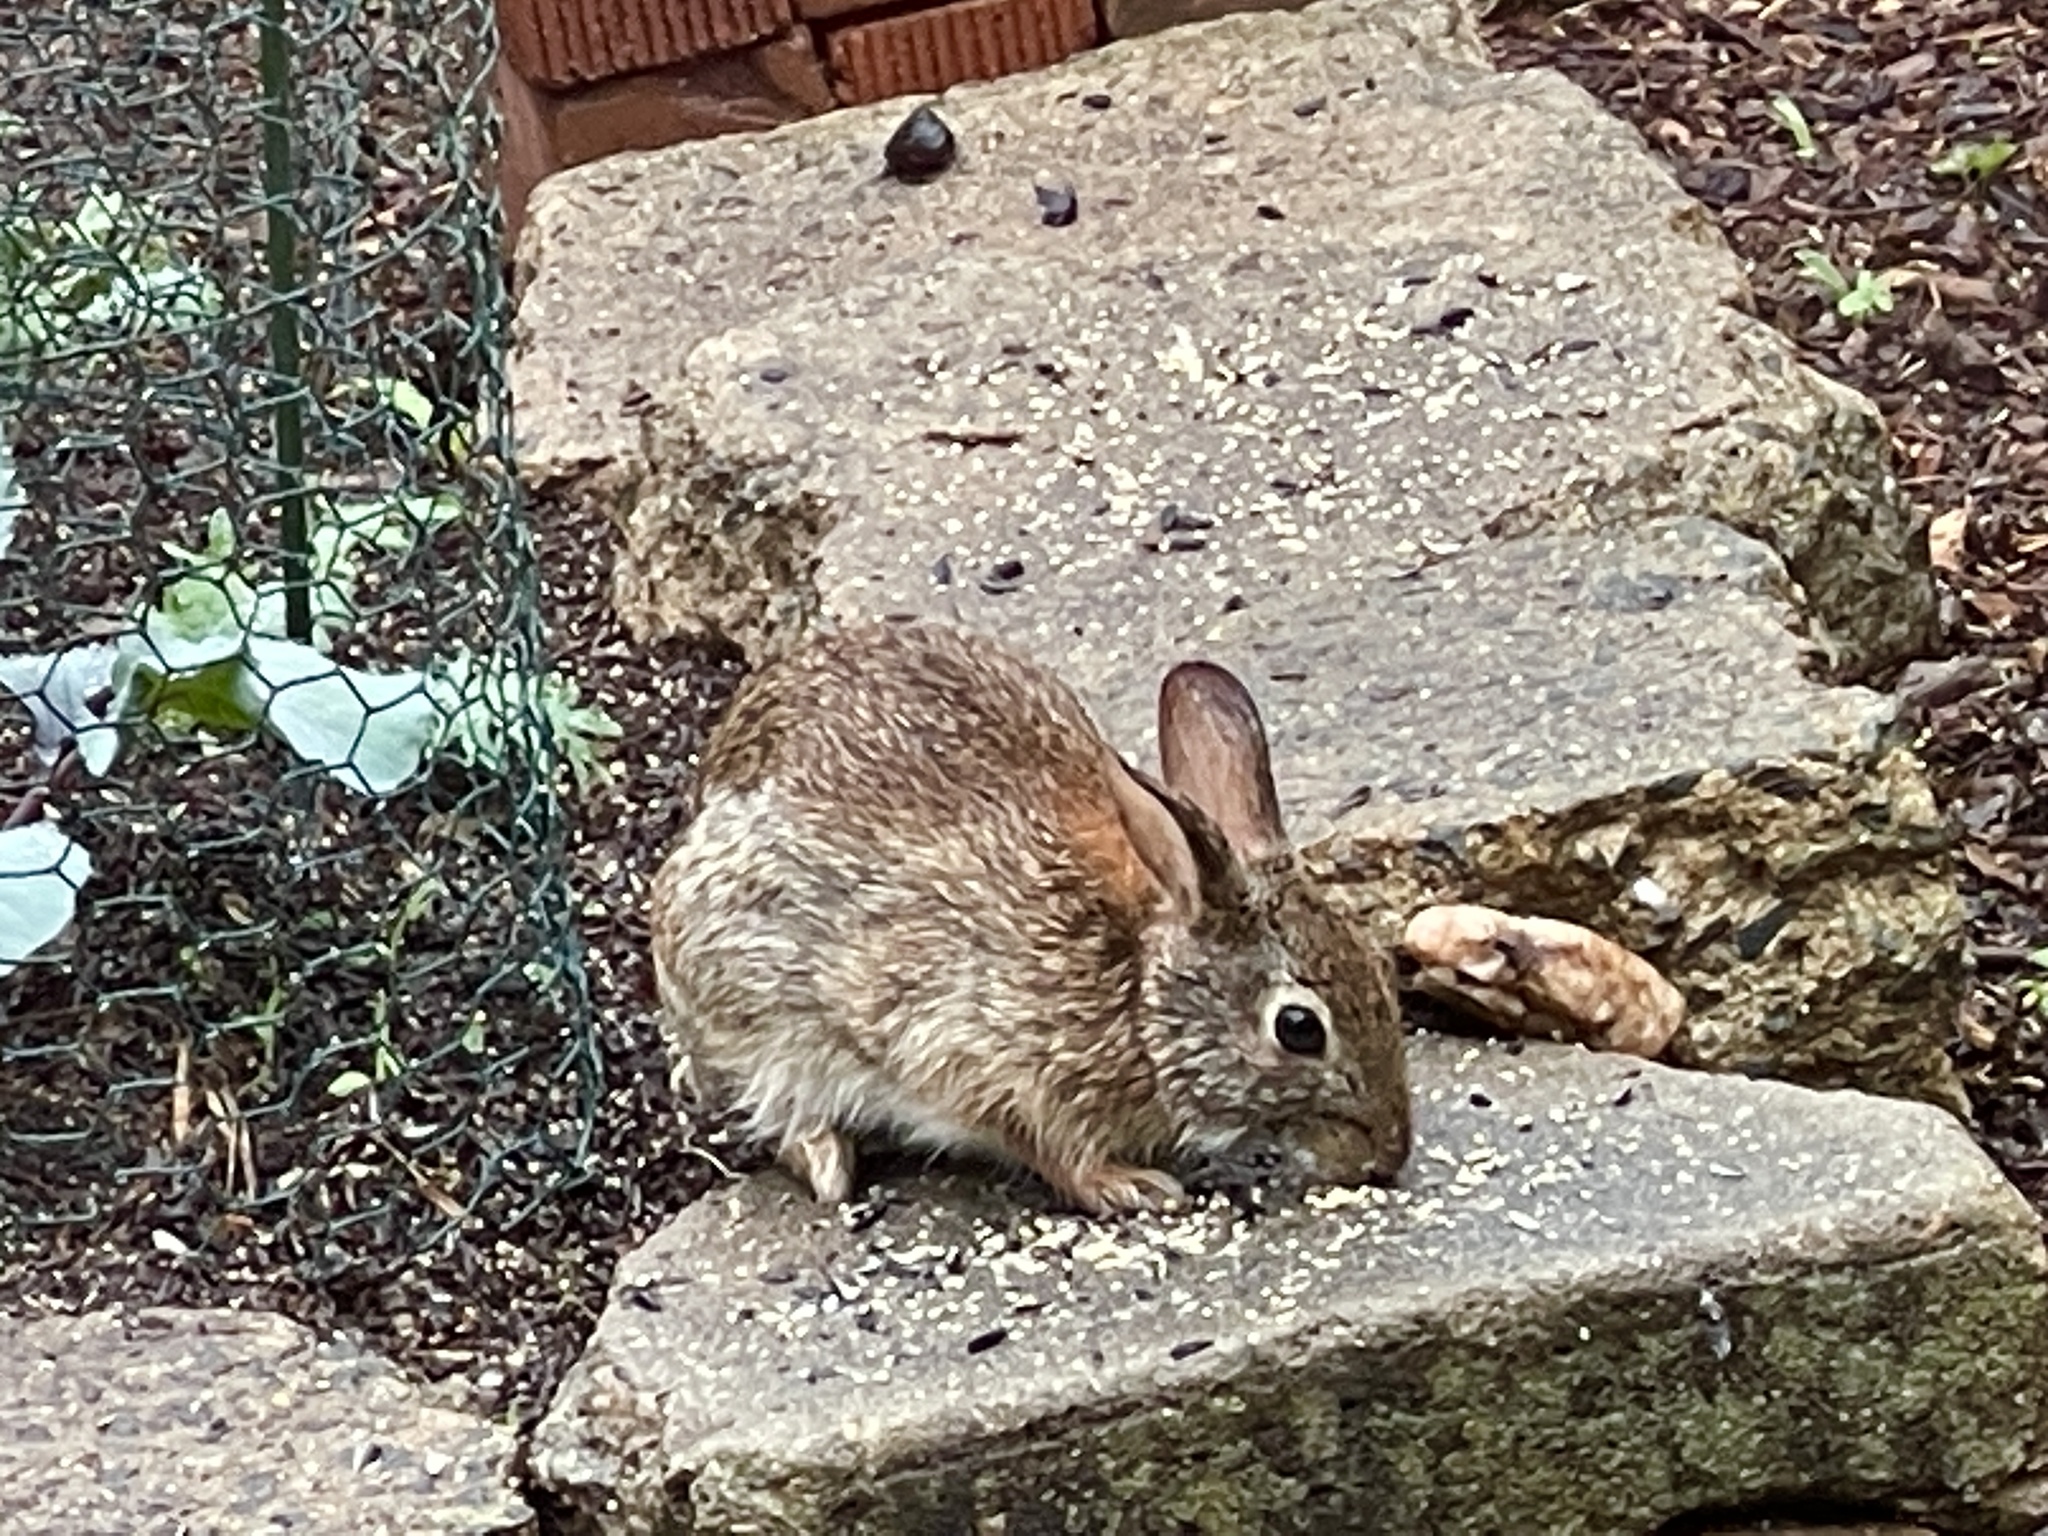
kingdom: Animalia
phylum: Chordata
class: Mammalia
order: Lagomorpha
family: Leporidae
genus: Sylvilagus
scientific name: Sylvilagus floridanus
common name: Eastern cottontail
